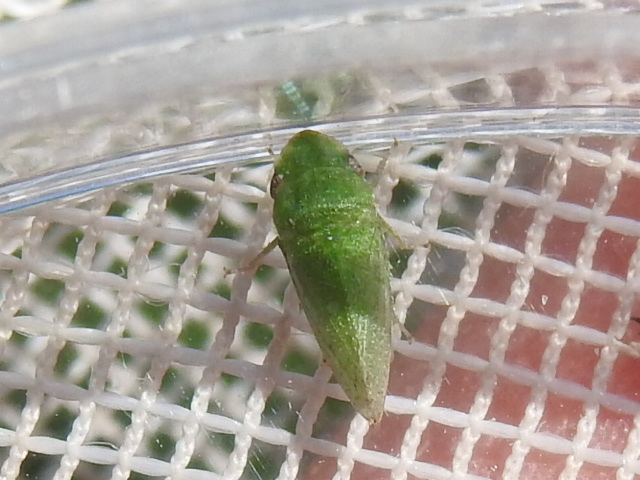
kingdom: Animalia
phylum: Arthropoda
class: Insecta
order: Hemiptera
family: Cicadellidae
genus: Xerophloea
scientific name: Xerophloea viridis
